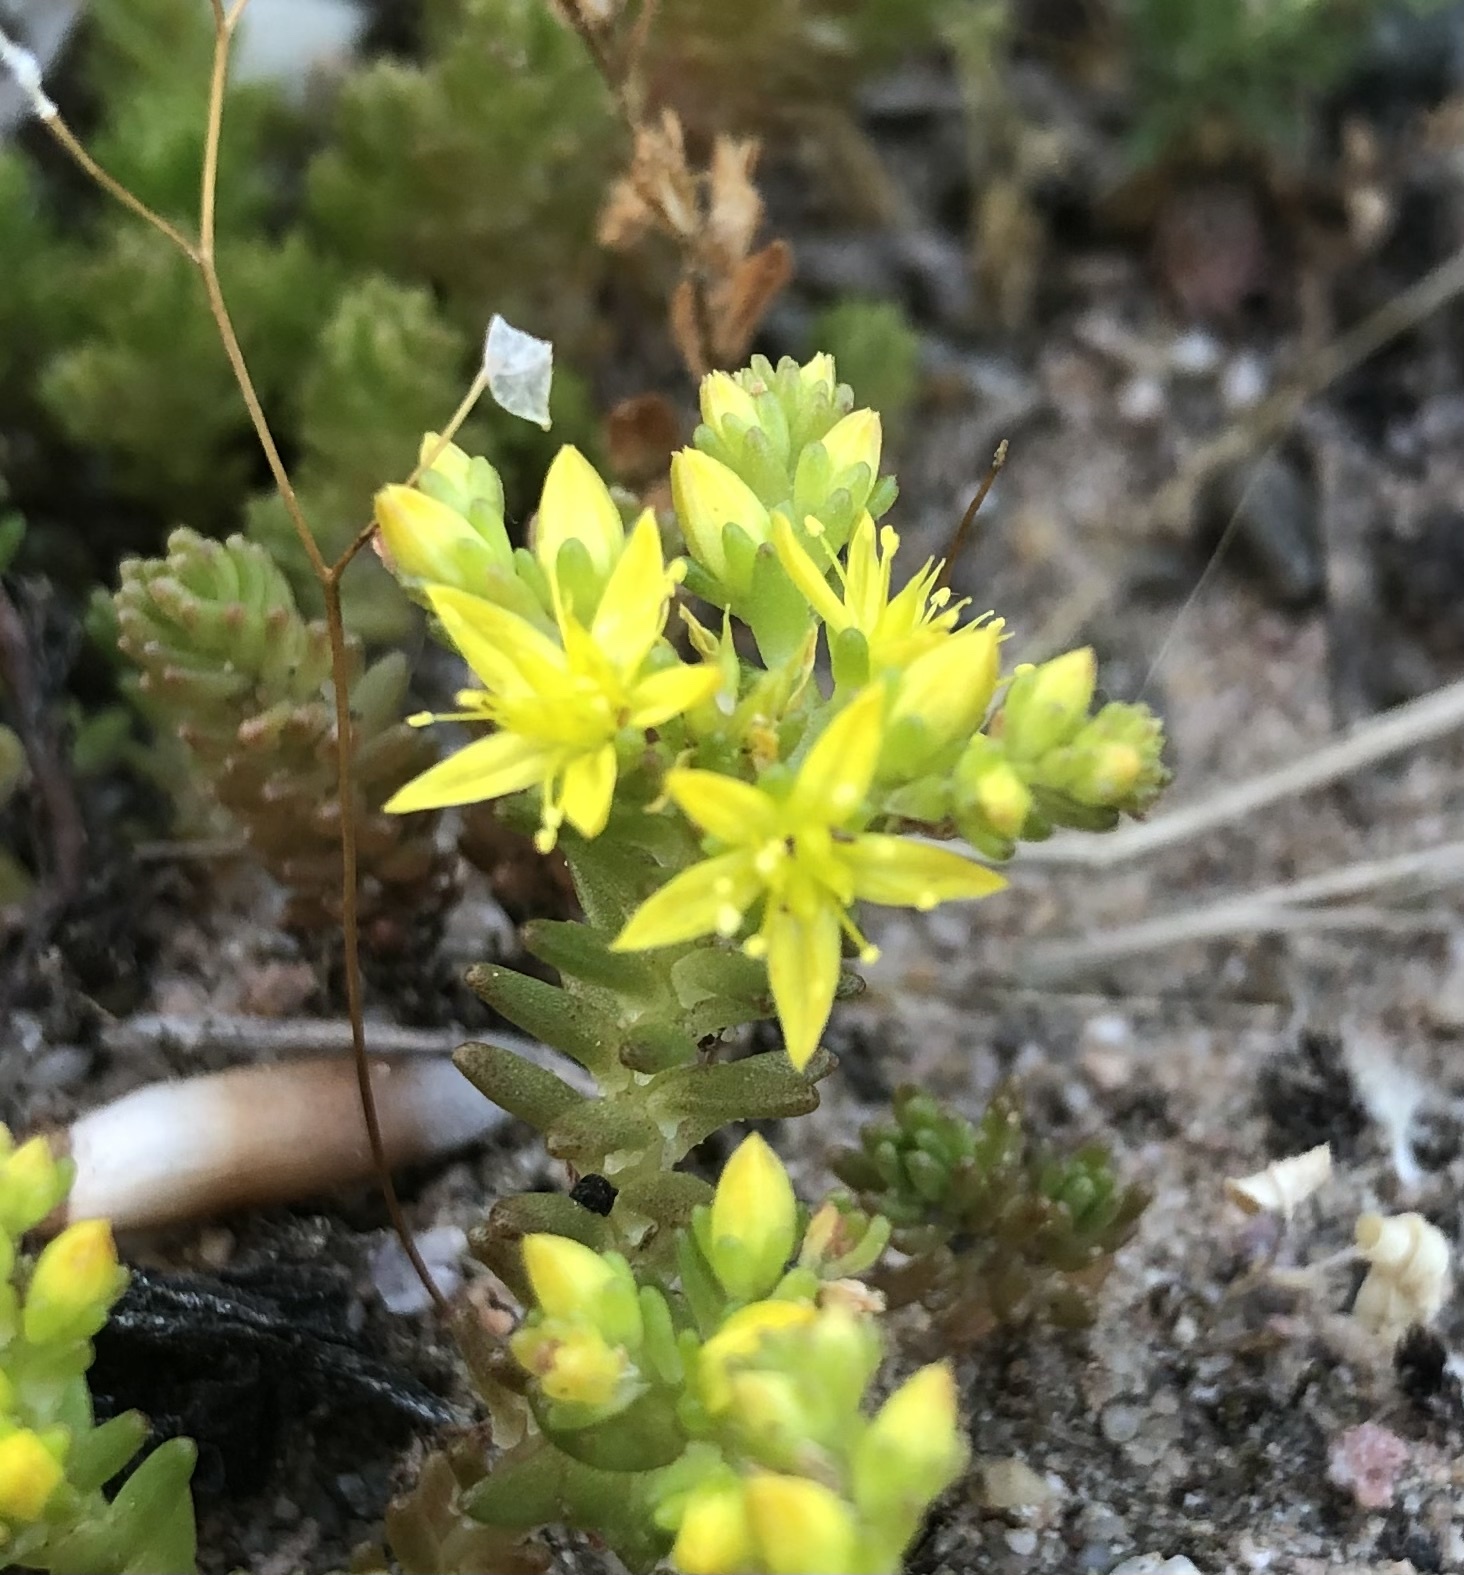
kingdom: Plantae
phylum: Tracheophyta
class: Magnoliopsida
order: Saxifragales
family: Crassulaceae
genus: Sedum
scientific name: Sedum sexangulare
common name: Tasteless stonecrop
